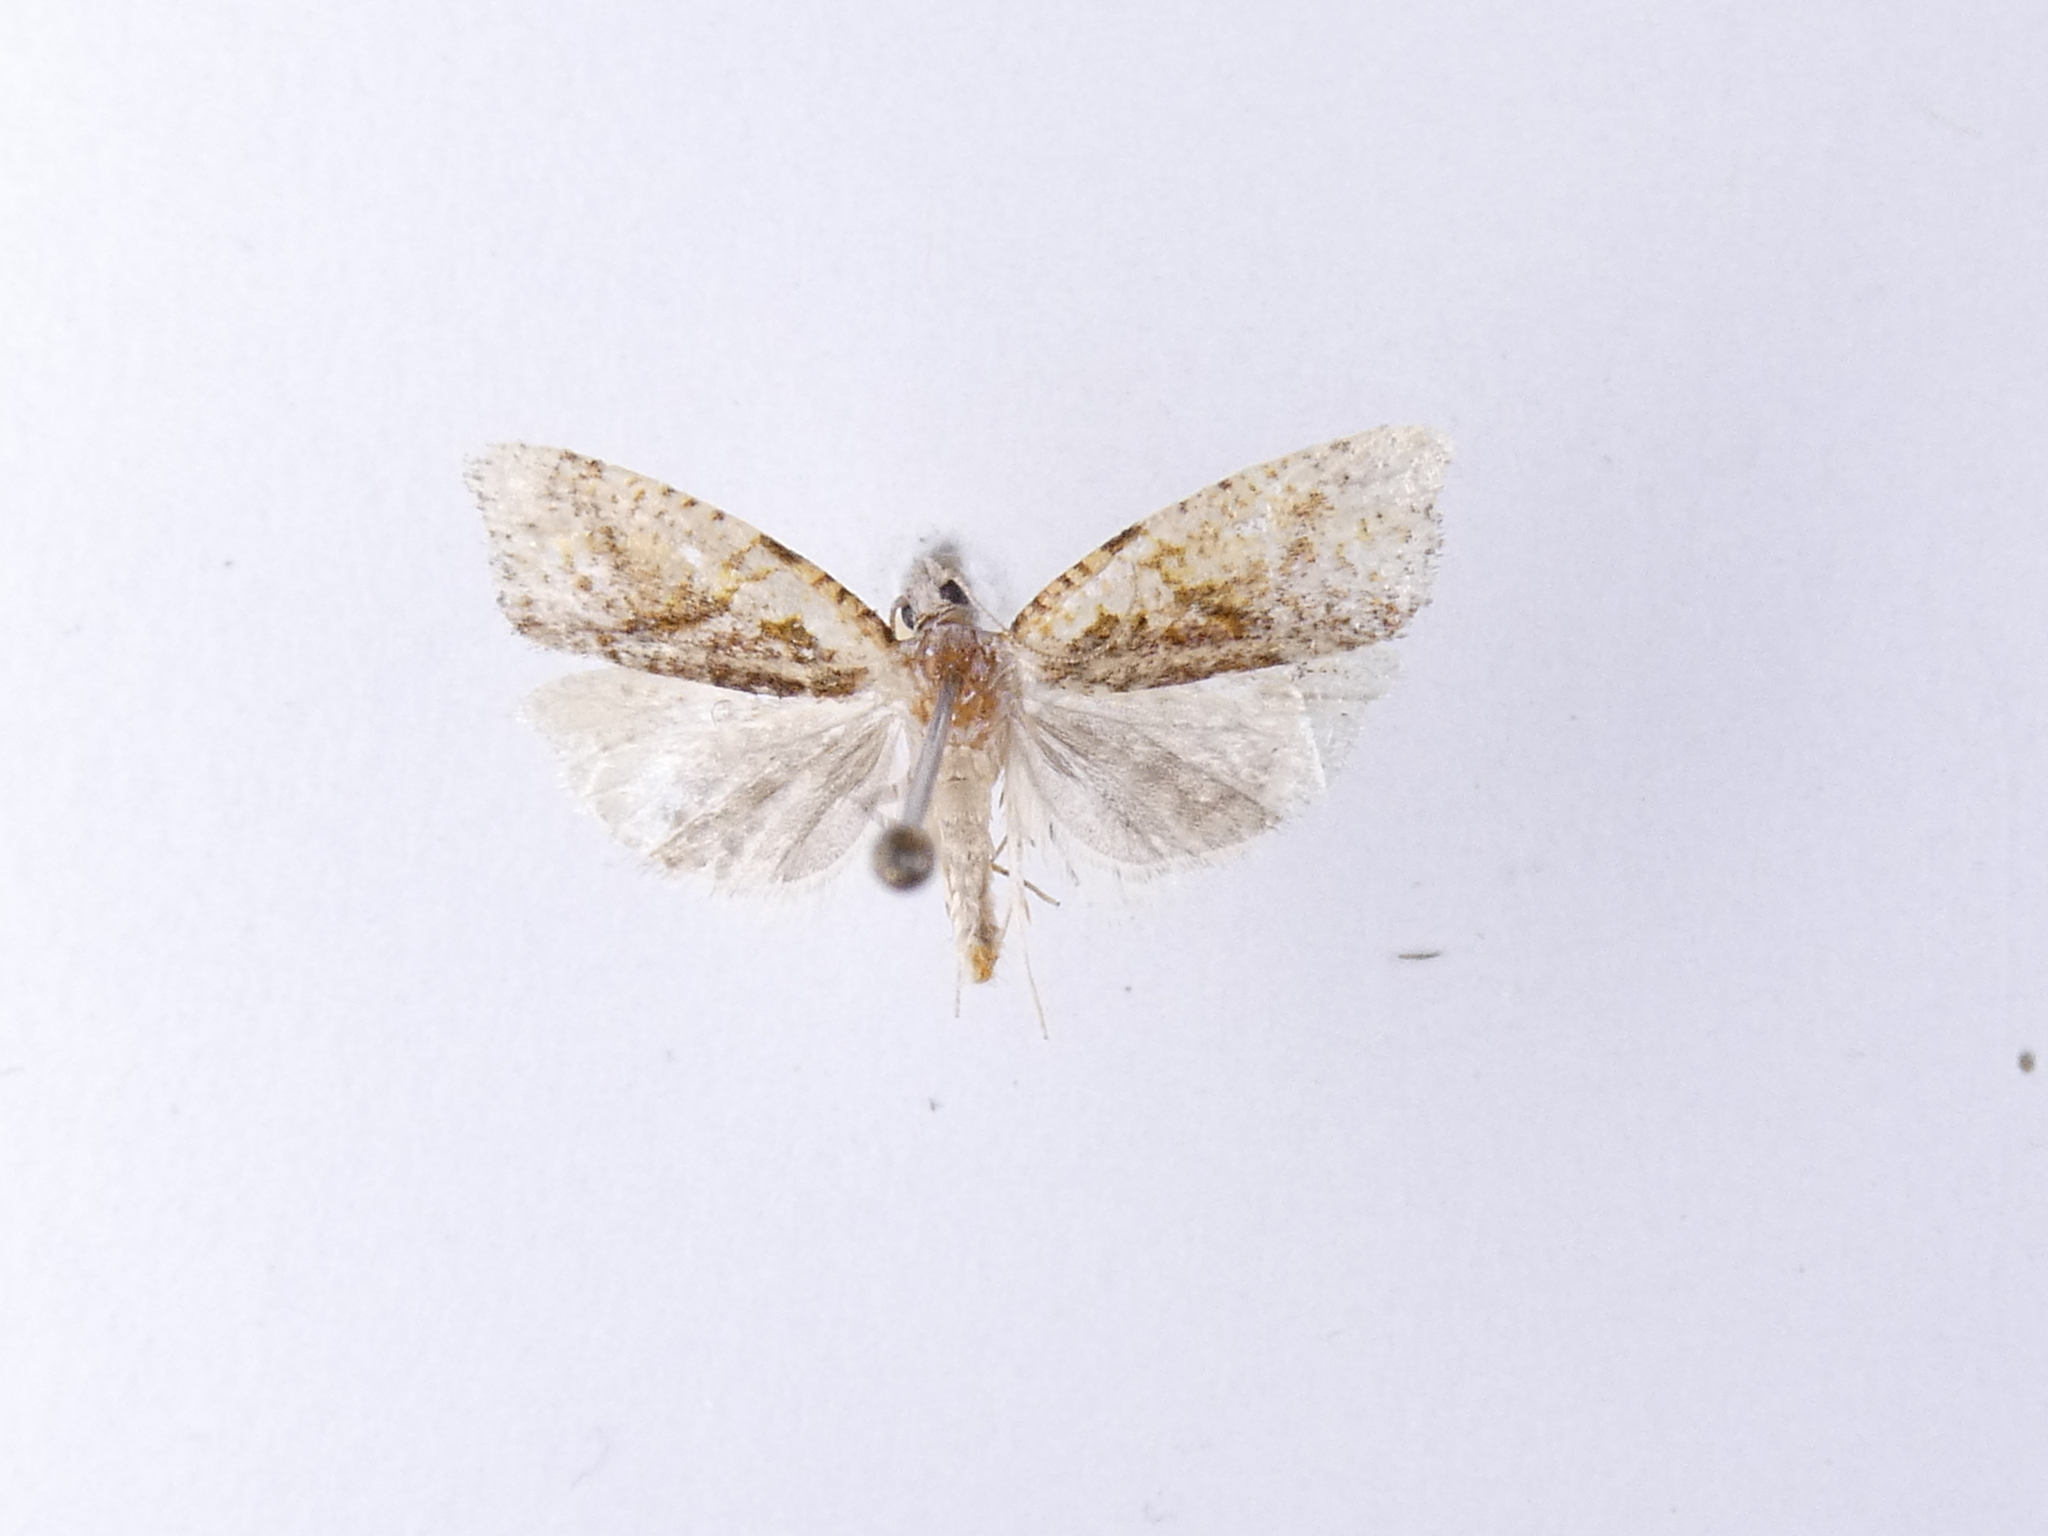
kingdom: Animalia
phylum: Arthropoda
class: Insecta
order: Lepidoptera
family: Tortricidae
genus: Pyrgotis
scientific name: Pyrgotis plagiatana
